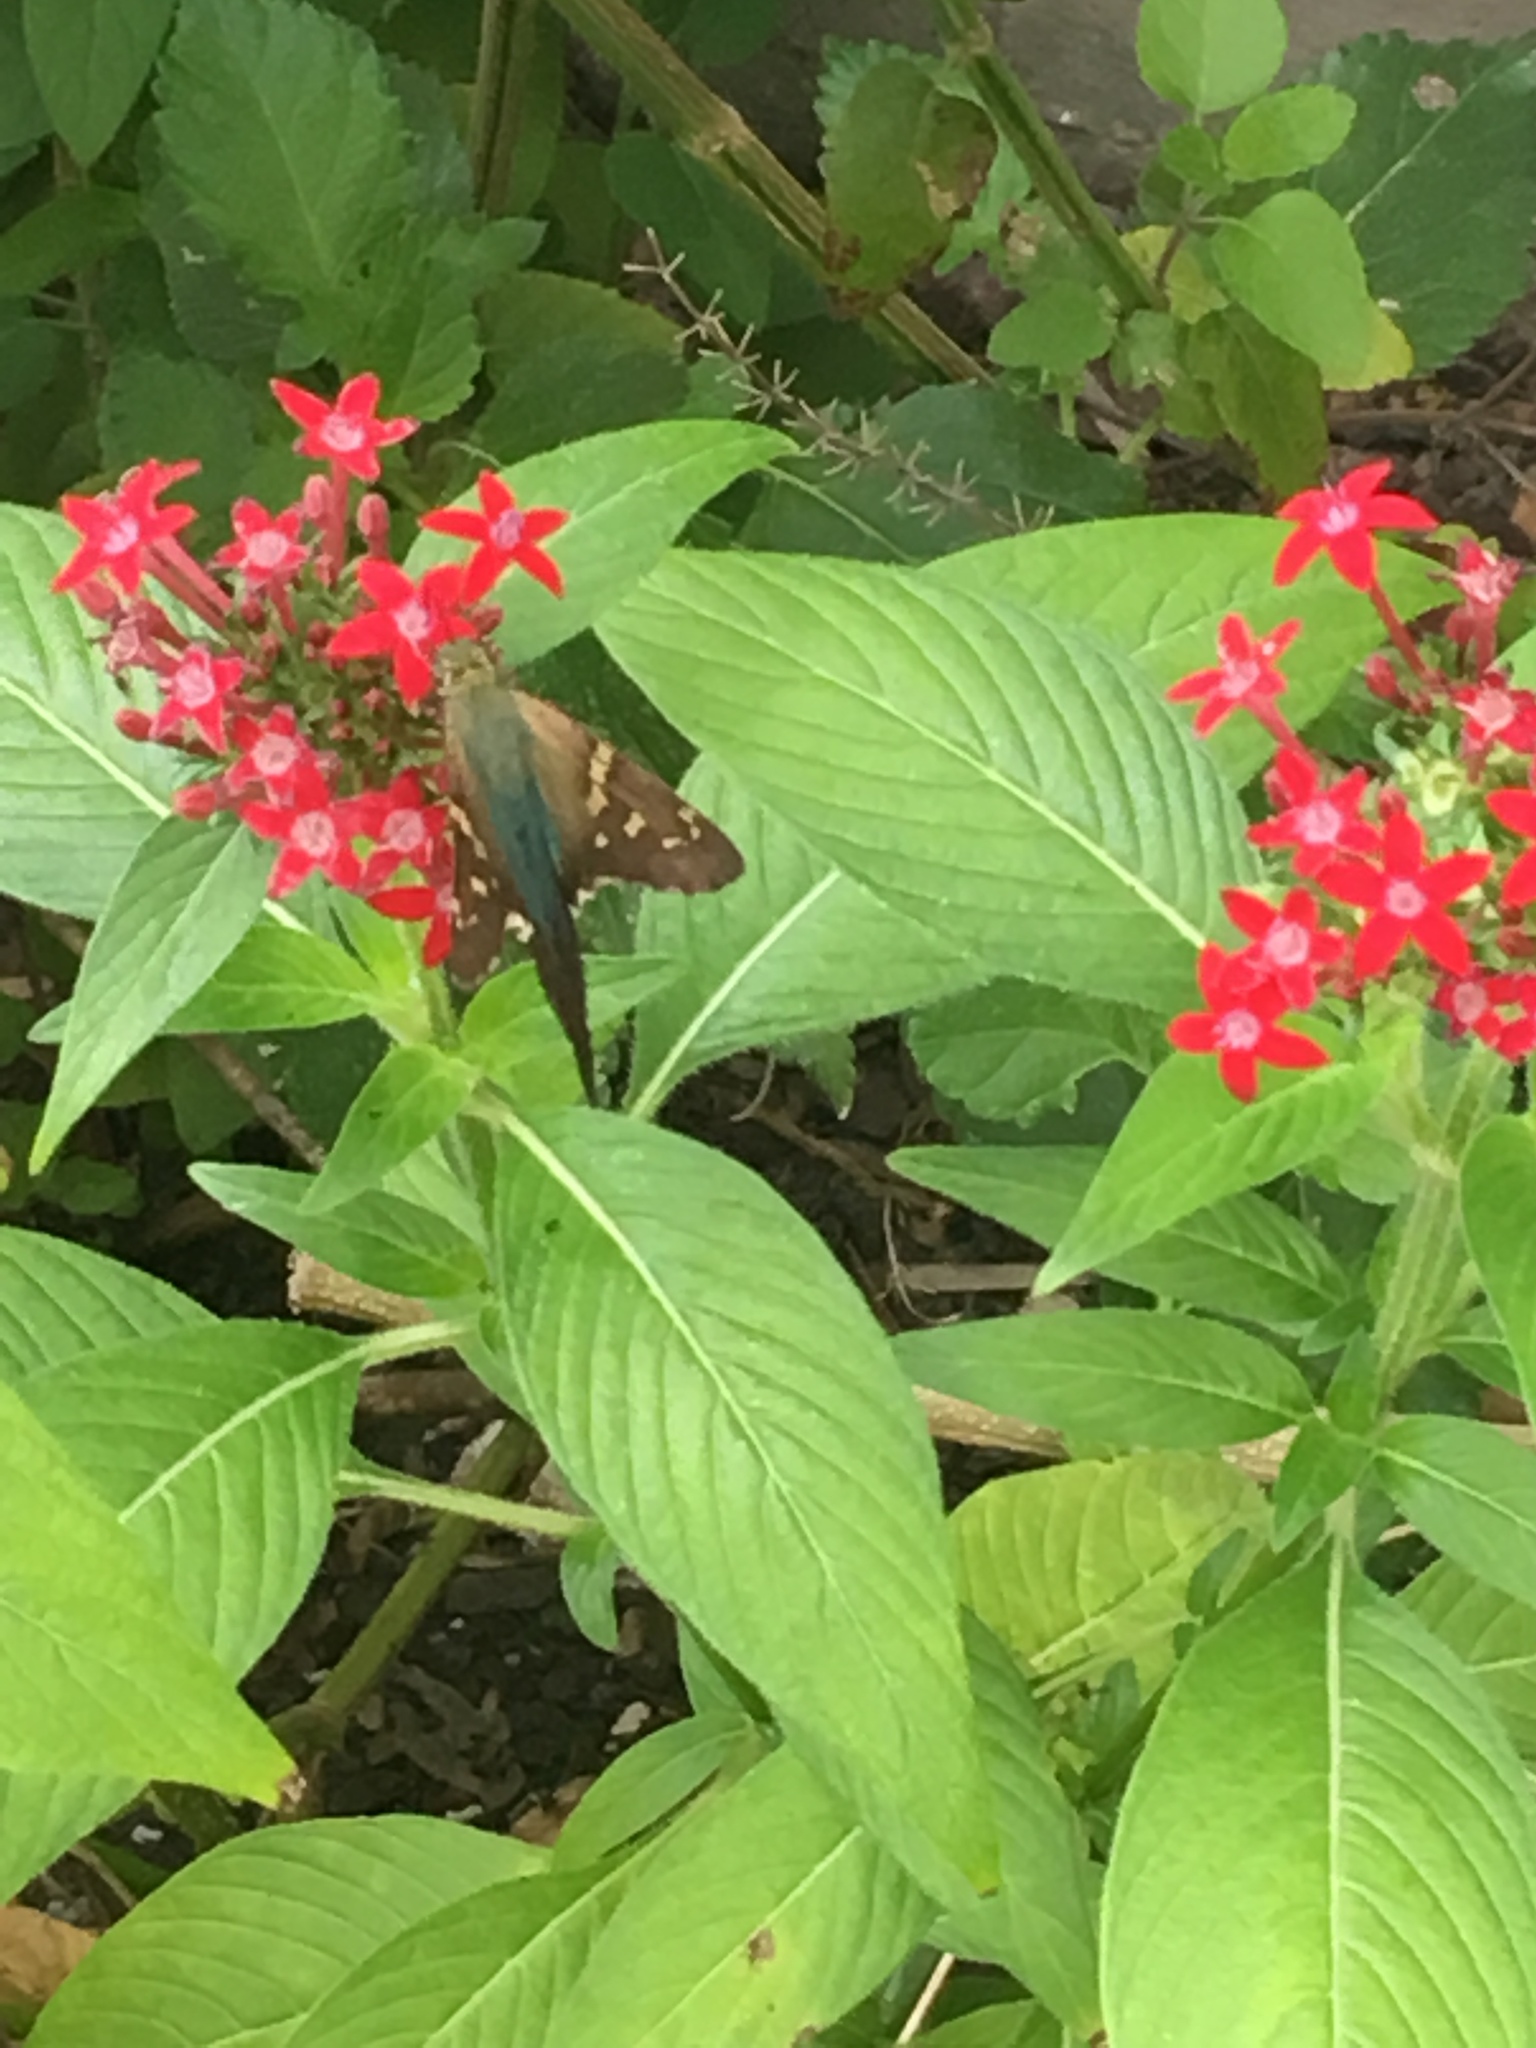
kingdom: Animalia
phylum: Arthropoda
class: Insecta
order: Lepidoptera
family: Hesperiidae
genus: Urbanus
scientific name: Urbanus proteus
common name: Long-tailed skipper
